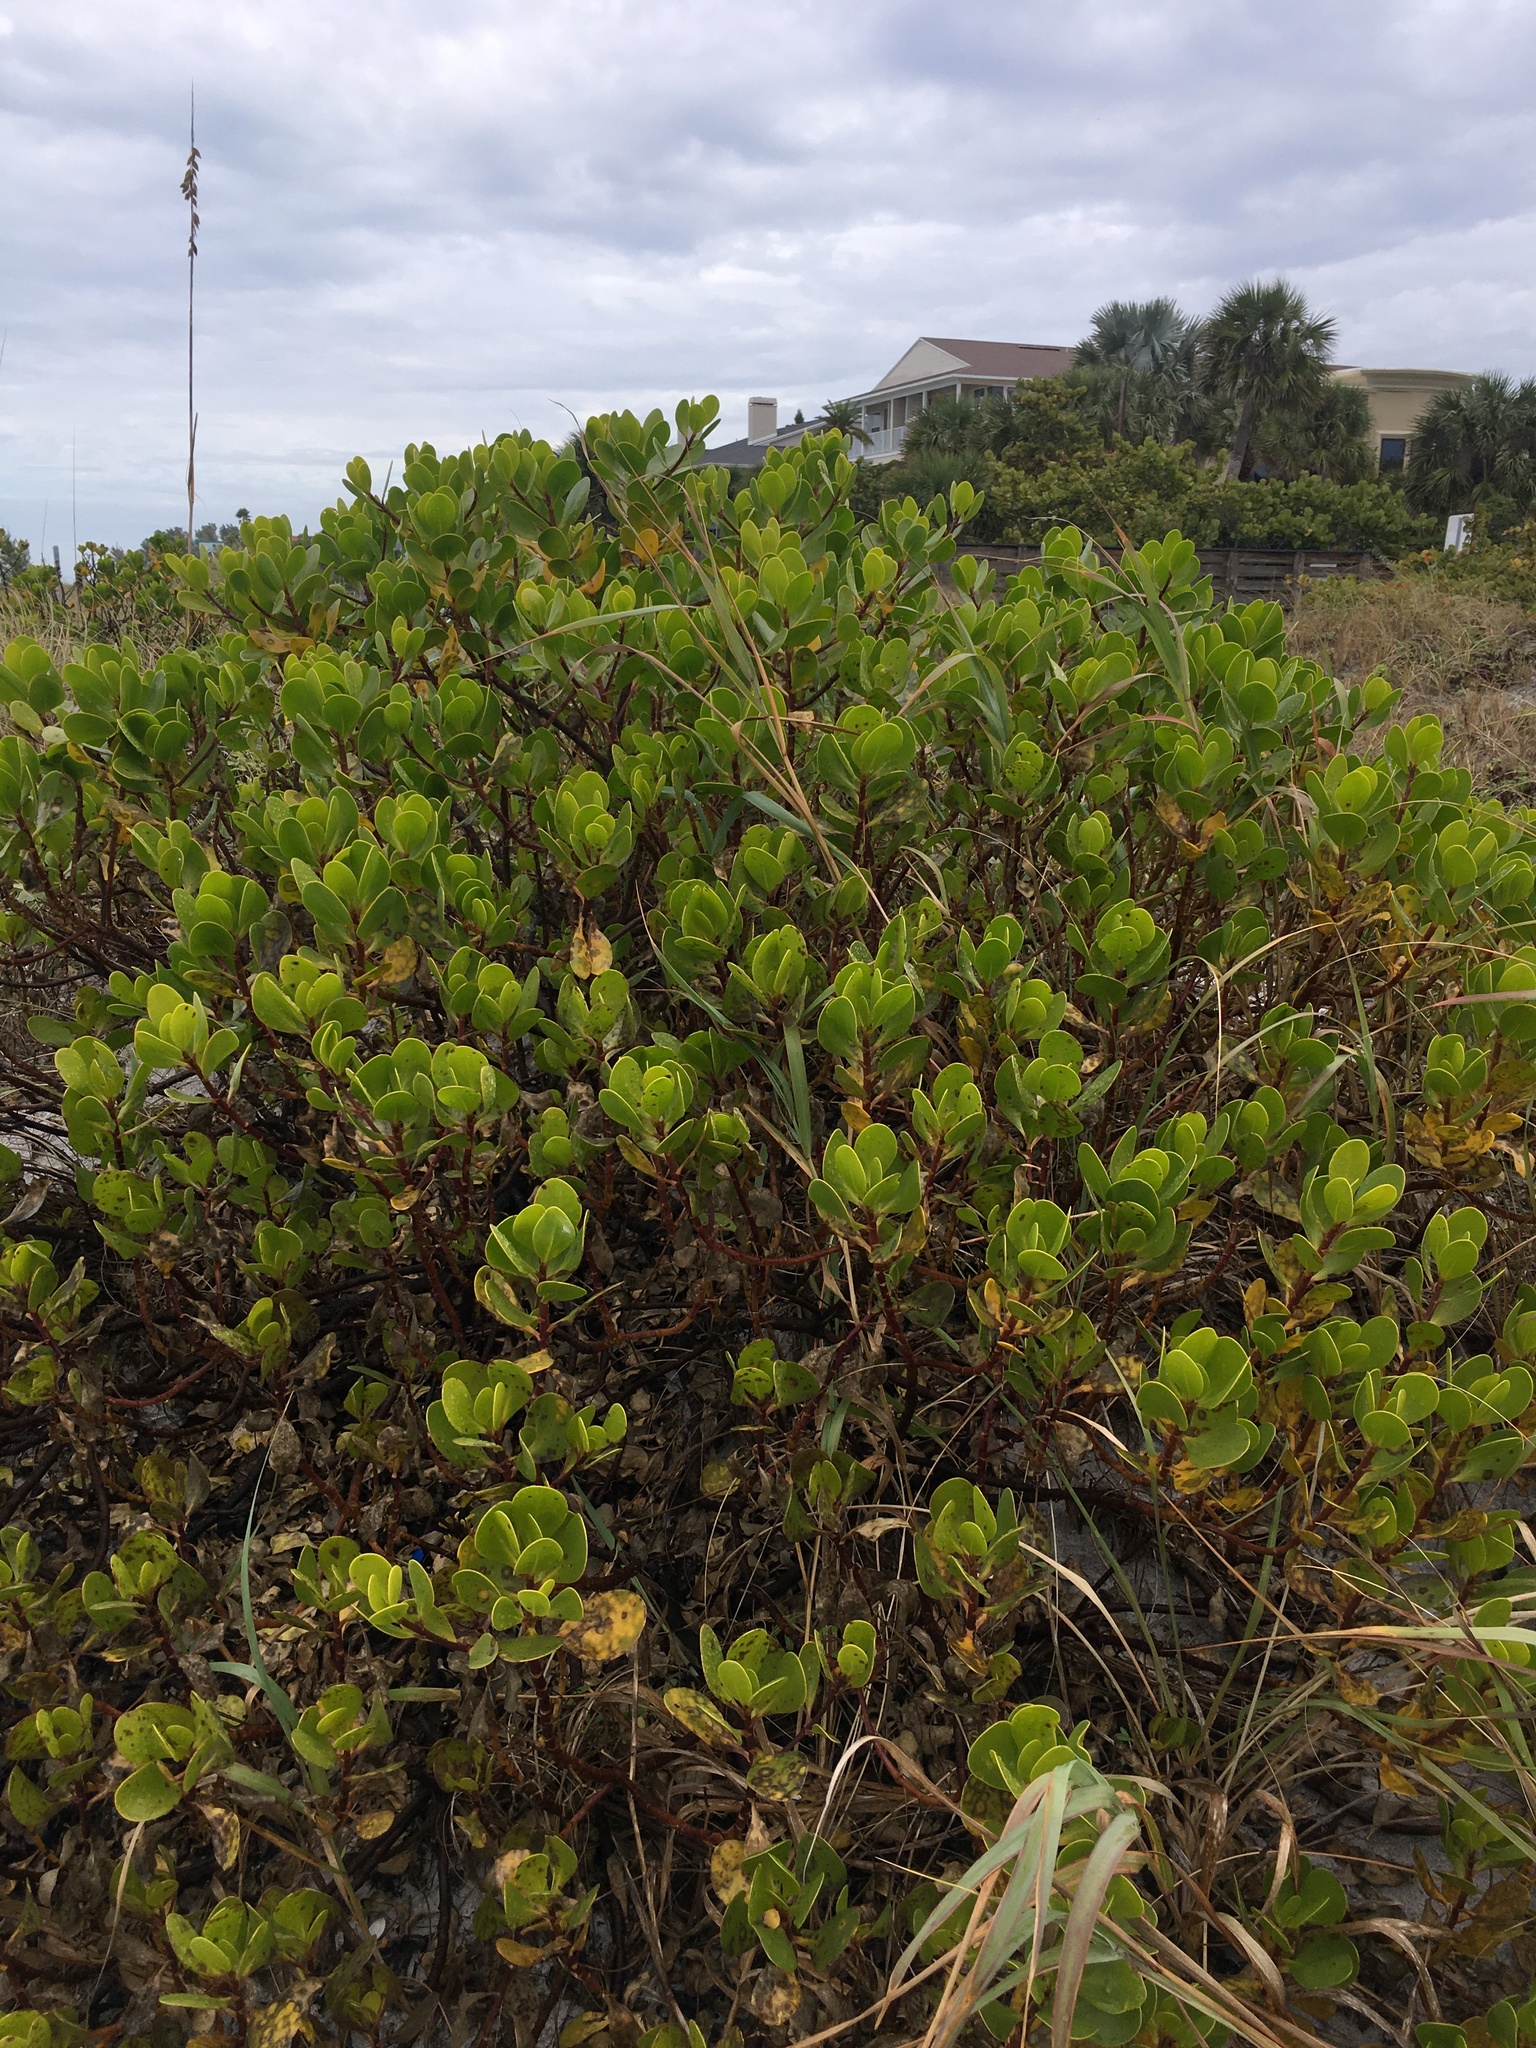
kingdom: Plantae
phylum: Tracheophyta
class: Magnoliopsida
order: Asterales
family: Goodeniaceae
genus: Scaevola
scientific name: Scaevola plumieri
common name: Gull feed
